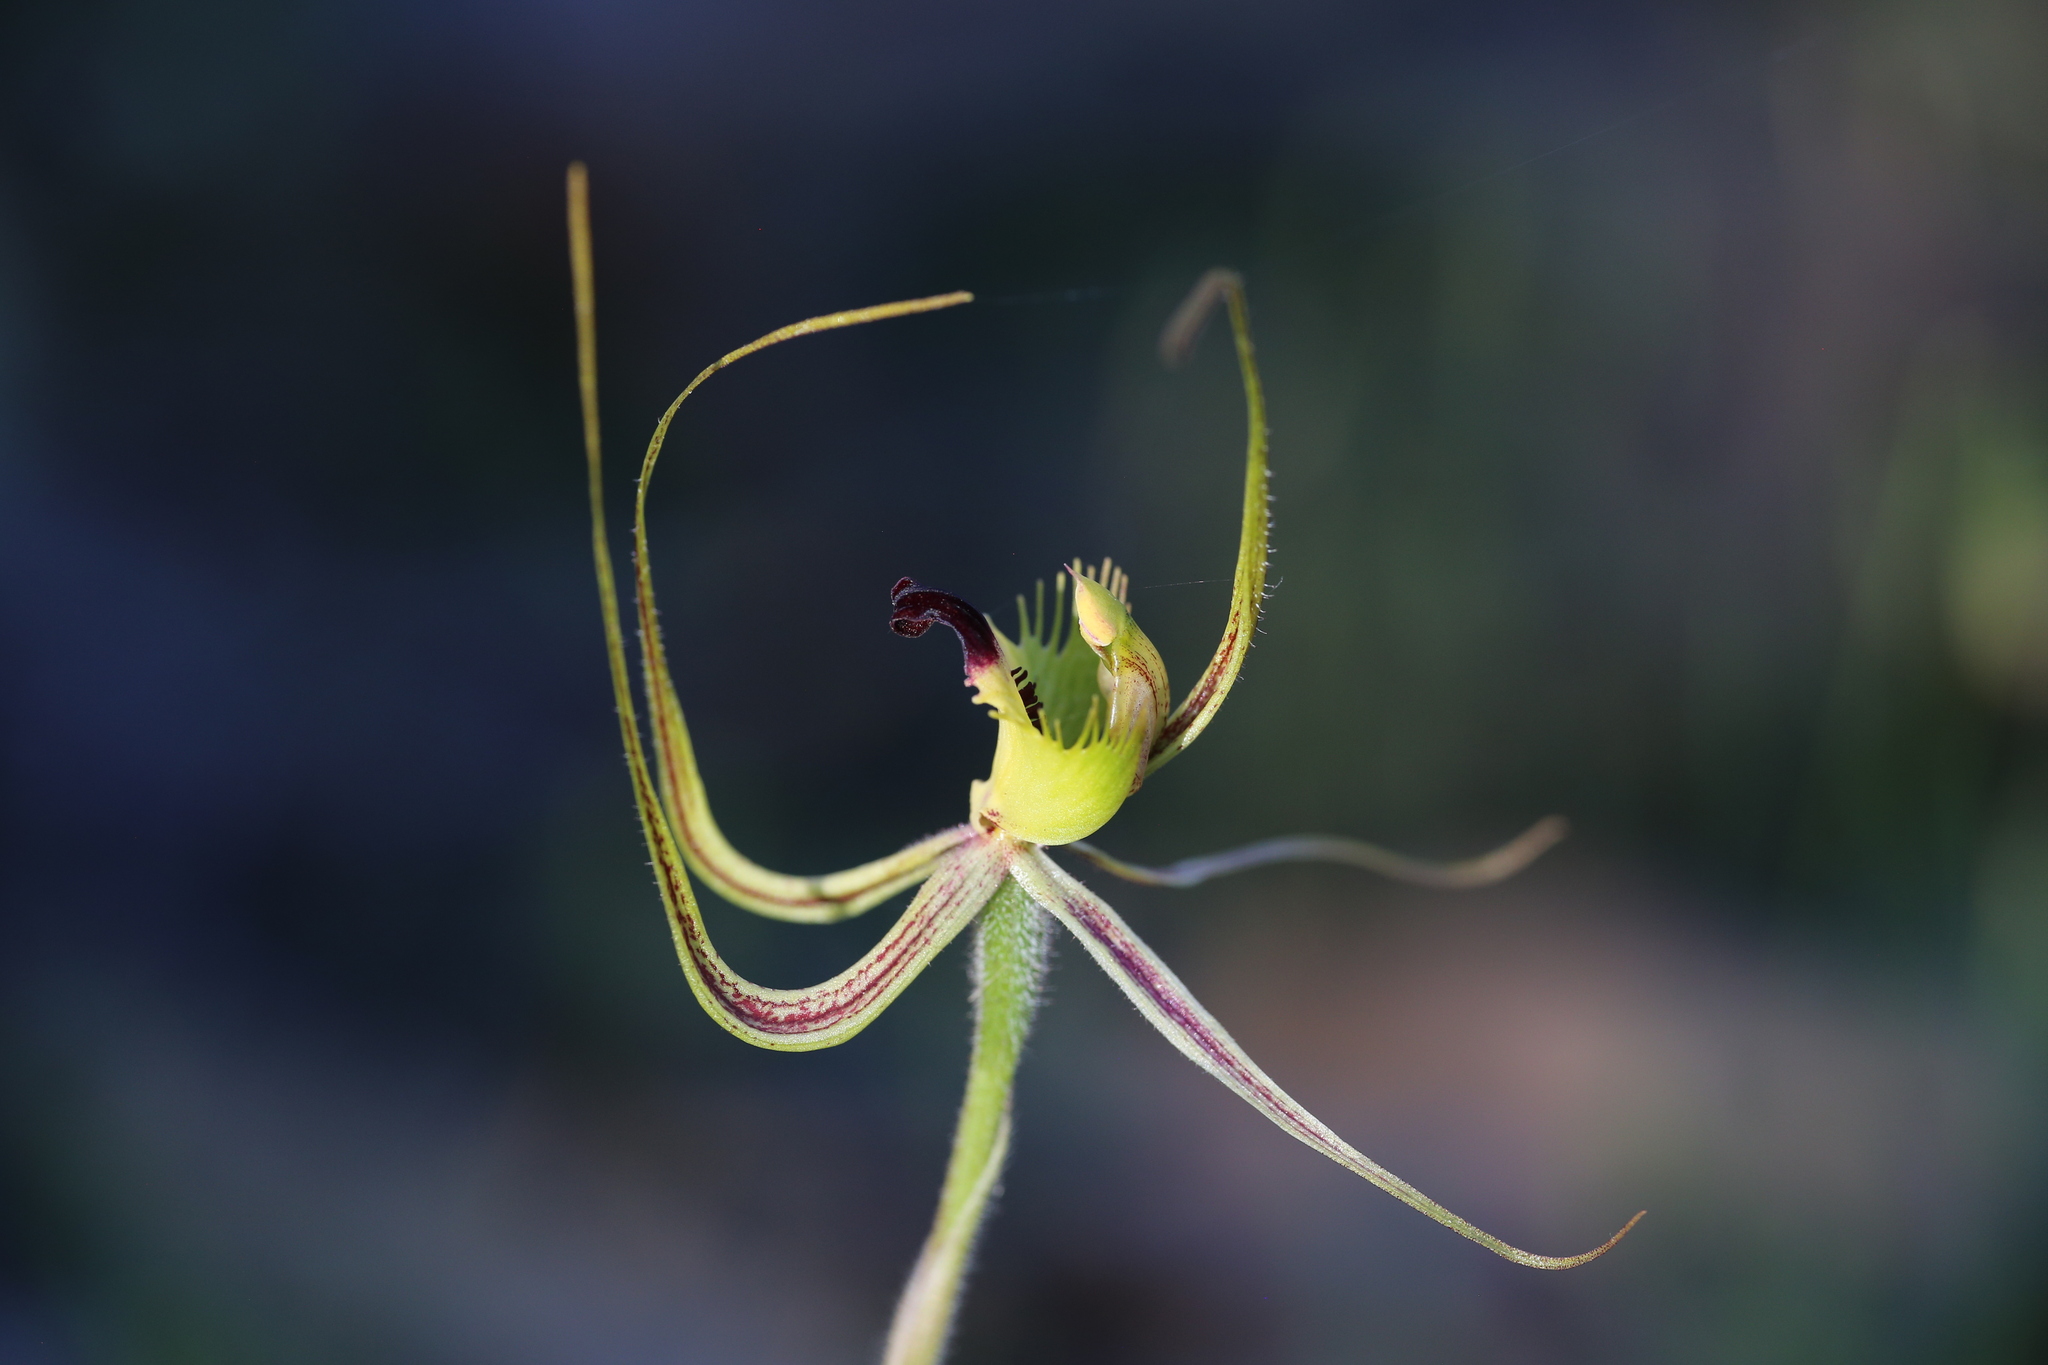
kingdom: Plantae
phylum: Tracheophyta
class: Liliopsida
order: Asparagales
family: Orchidaceae
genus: Caladenia
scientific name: Caladenia falcata
